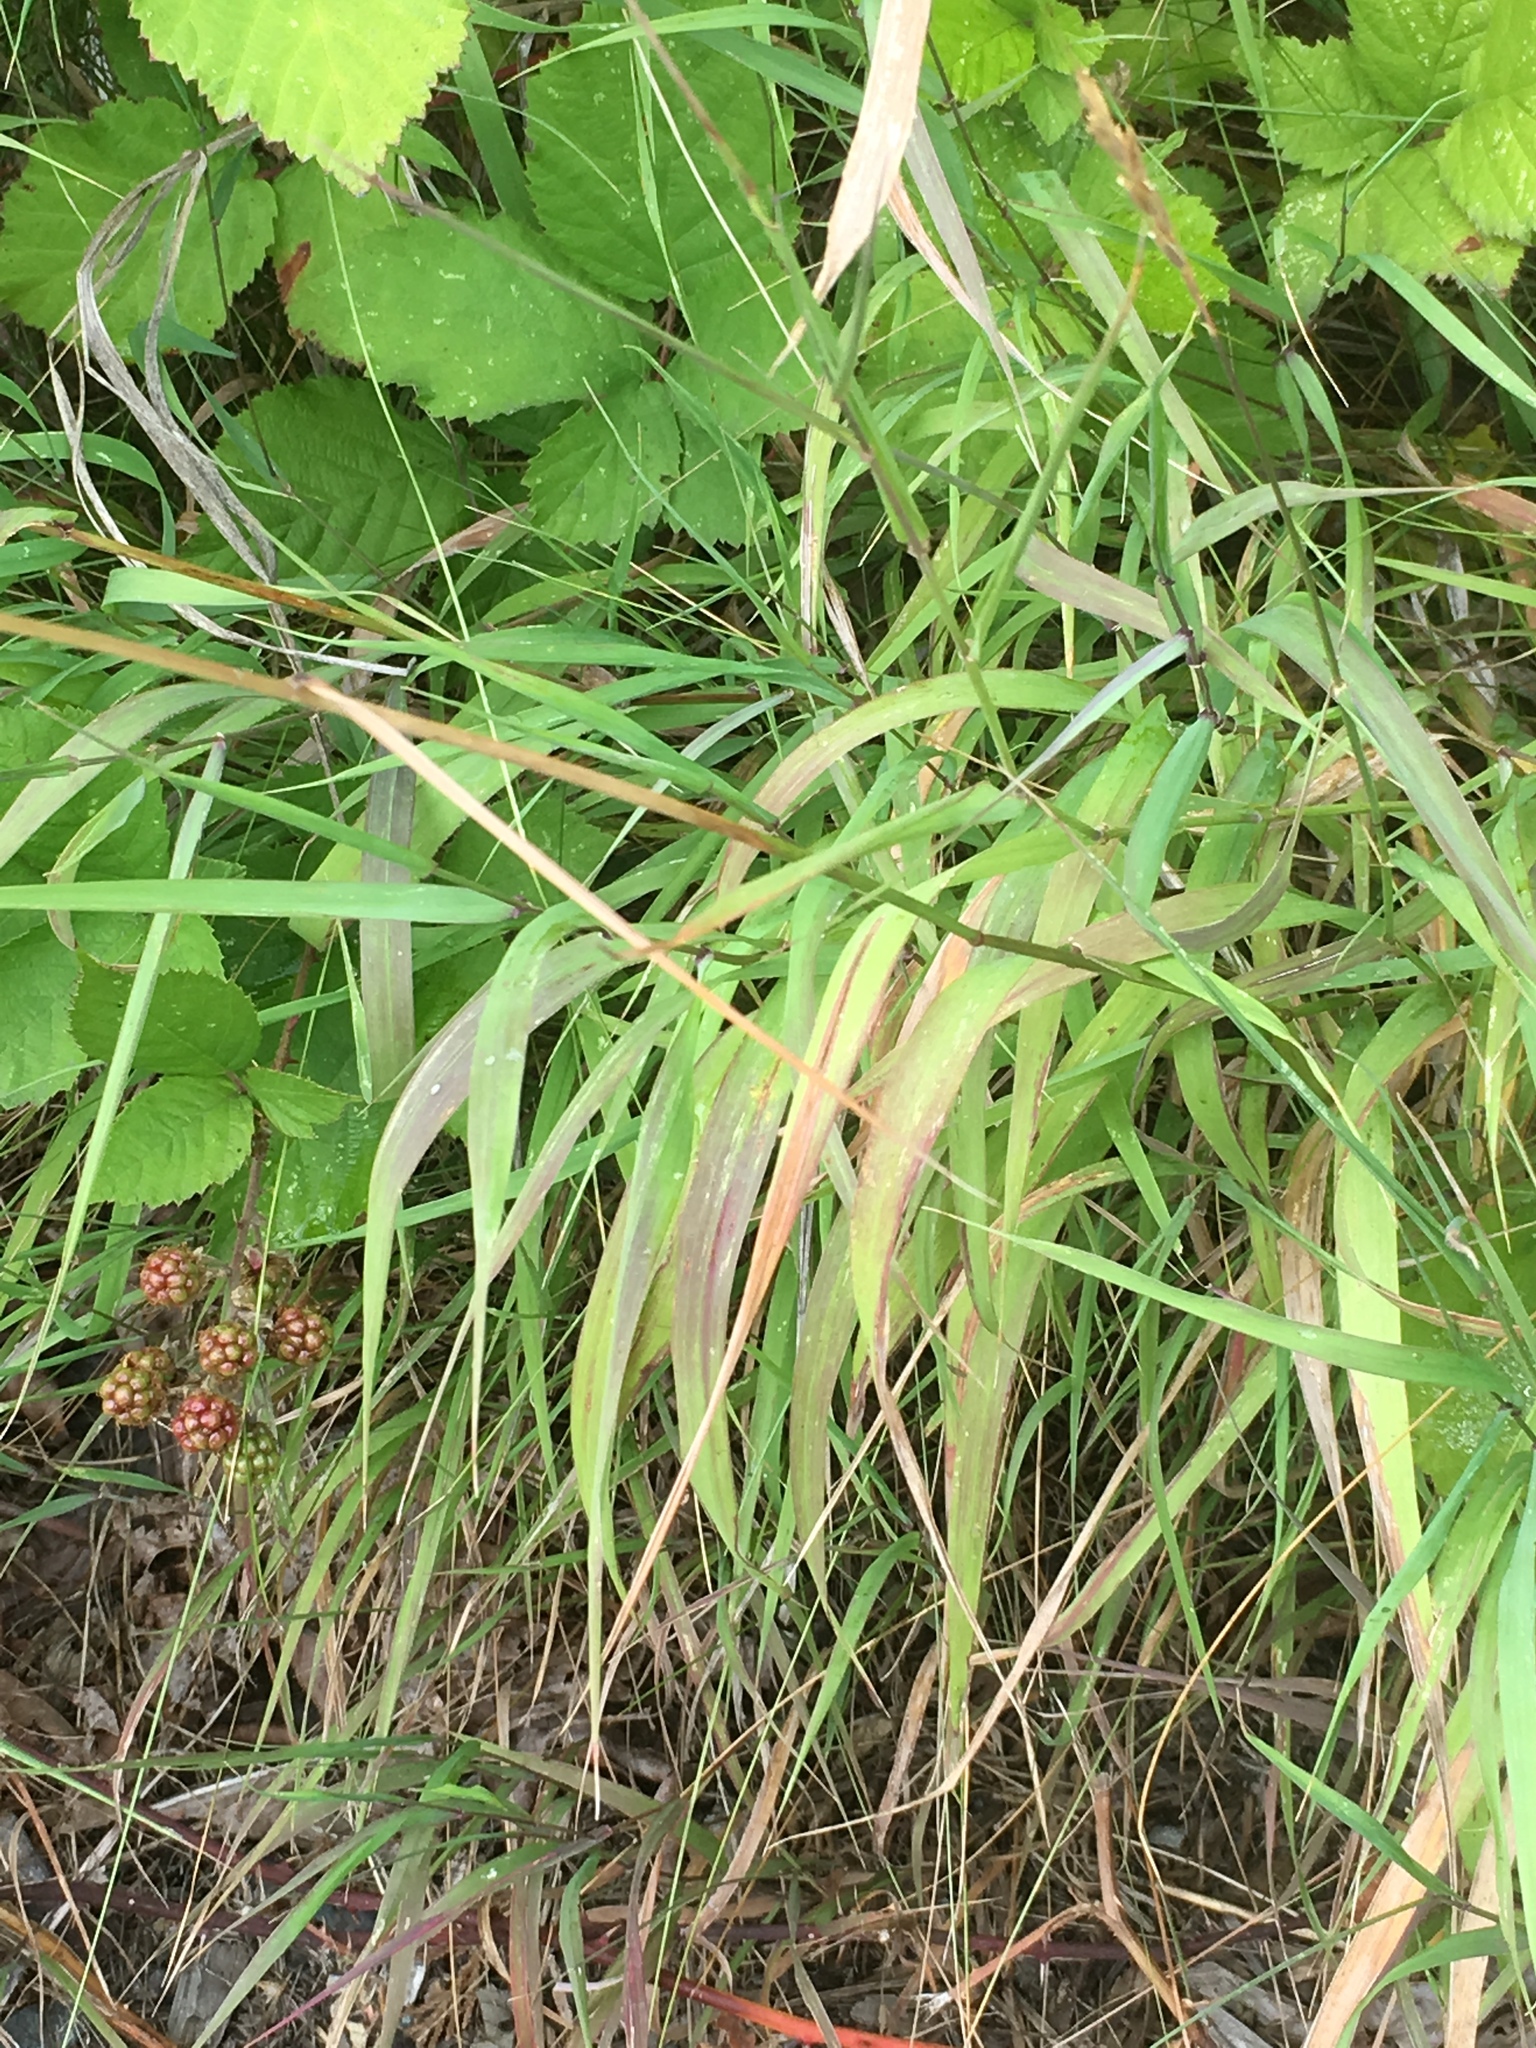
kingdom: Plantae
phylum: Tracheophyta
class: Liliopsida
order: Poales
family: Poaceae
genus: Elymus
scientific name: Elymus glaucus
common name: Blue wild rye
